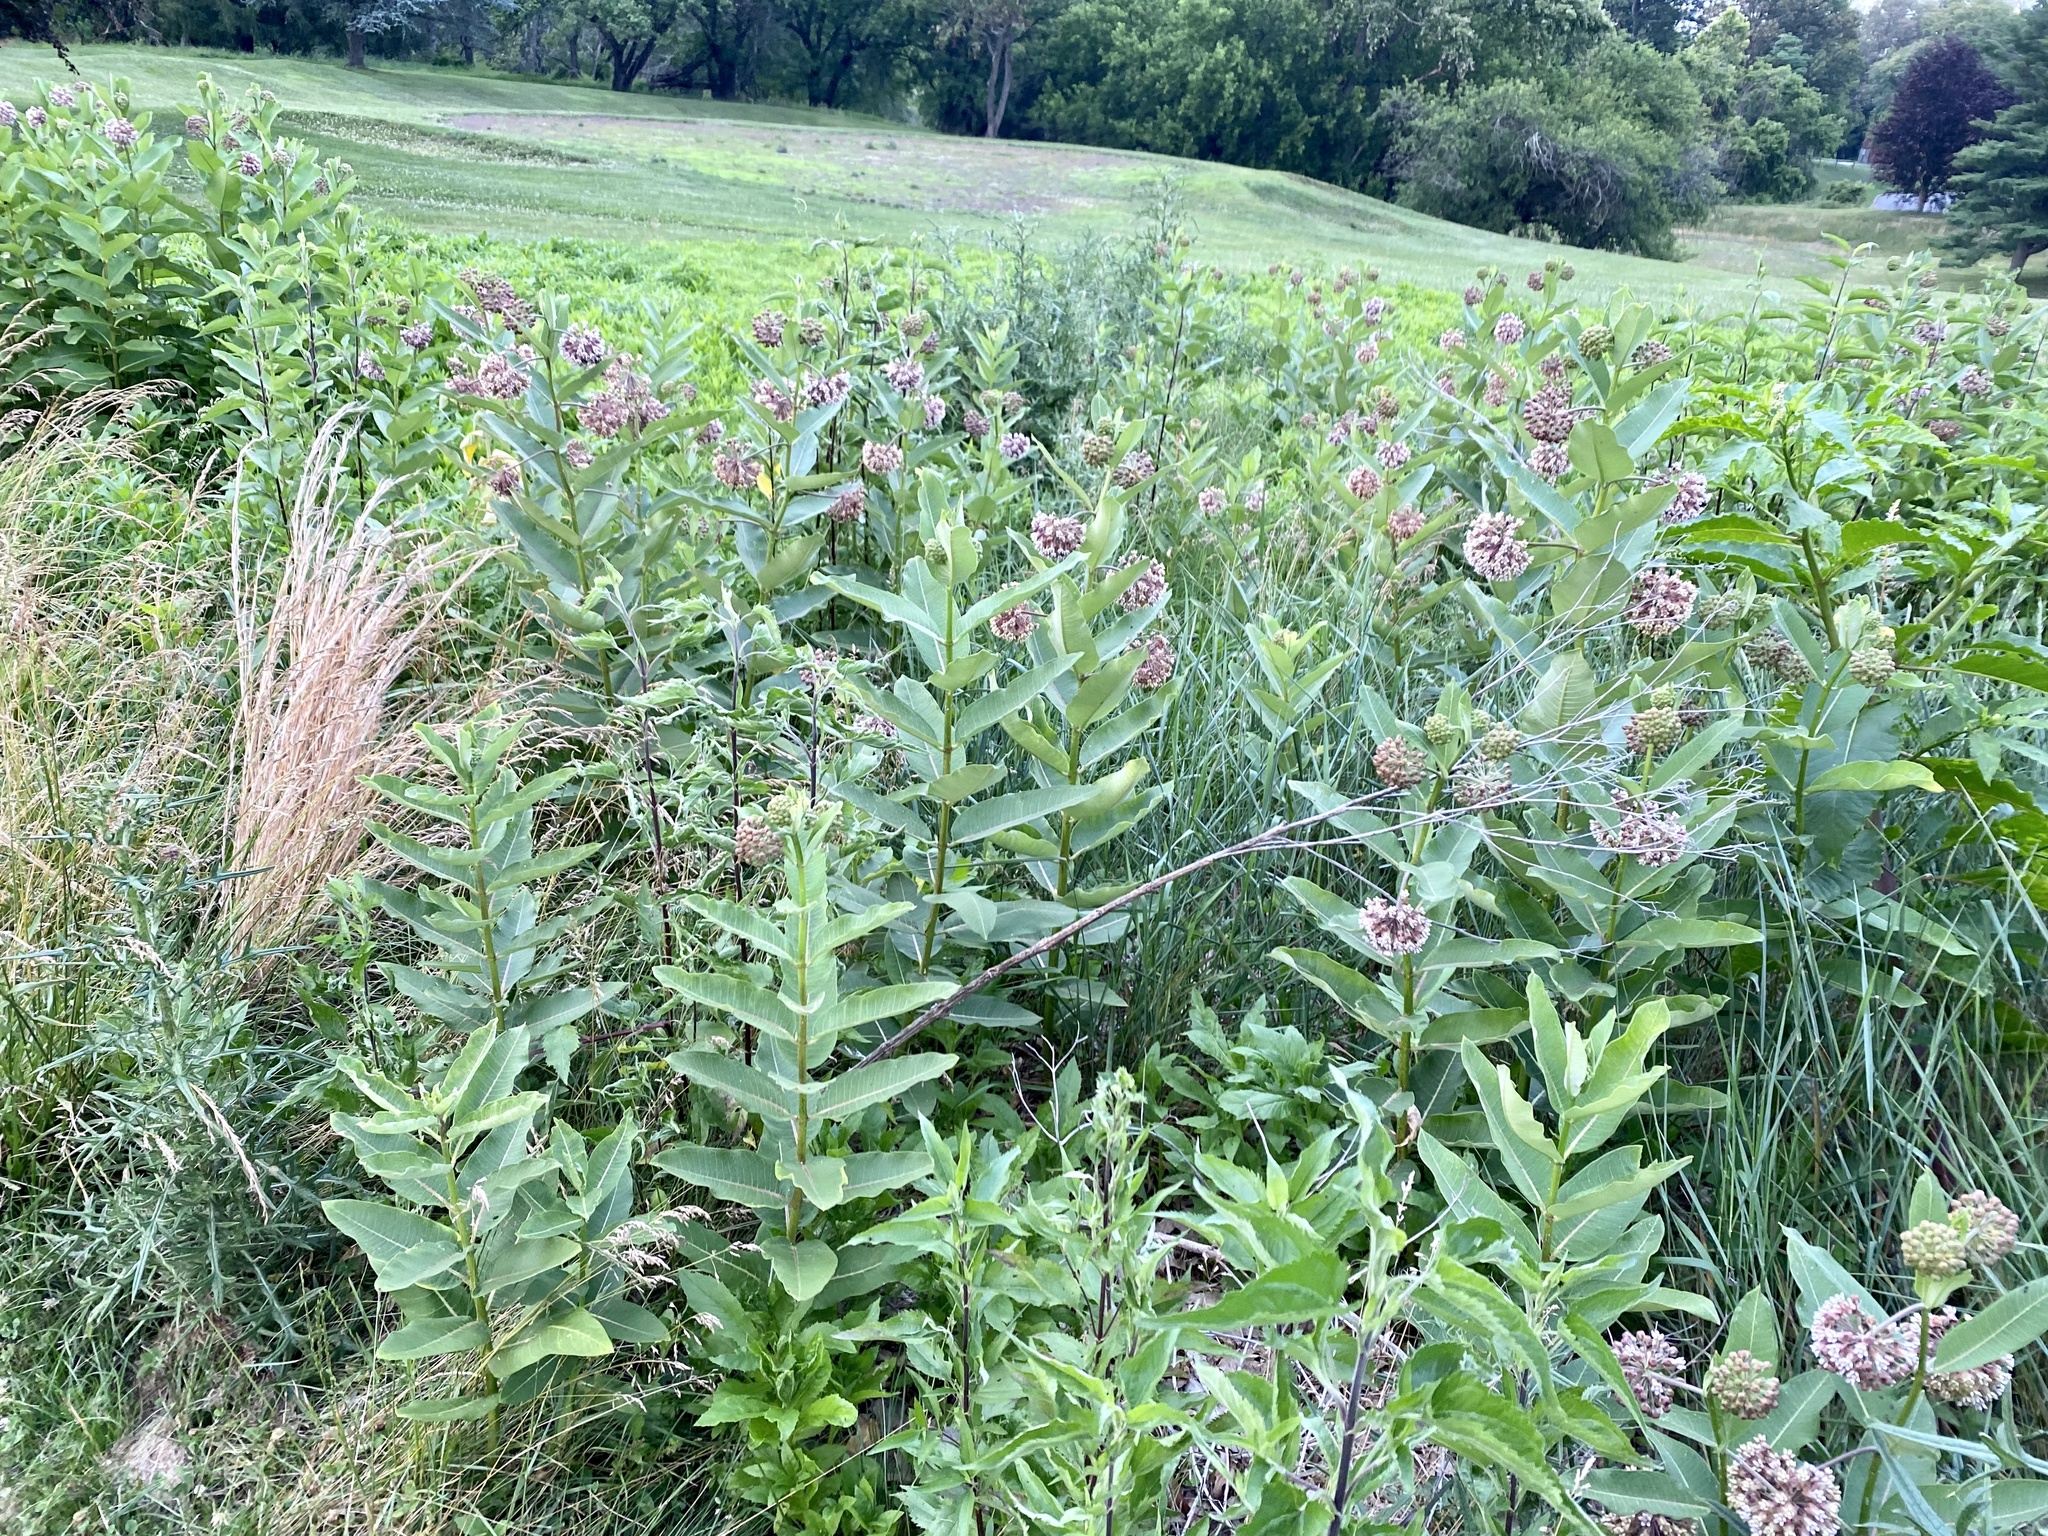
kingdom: Plantae
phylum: Tracheophyta
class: Magnoliopsida
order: Gentianales
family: Apocynaceae
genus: Asclepias
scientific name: Asclepias syriaca
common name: Common milkweed
